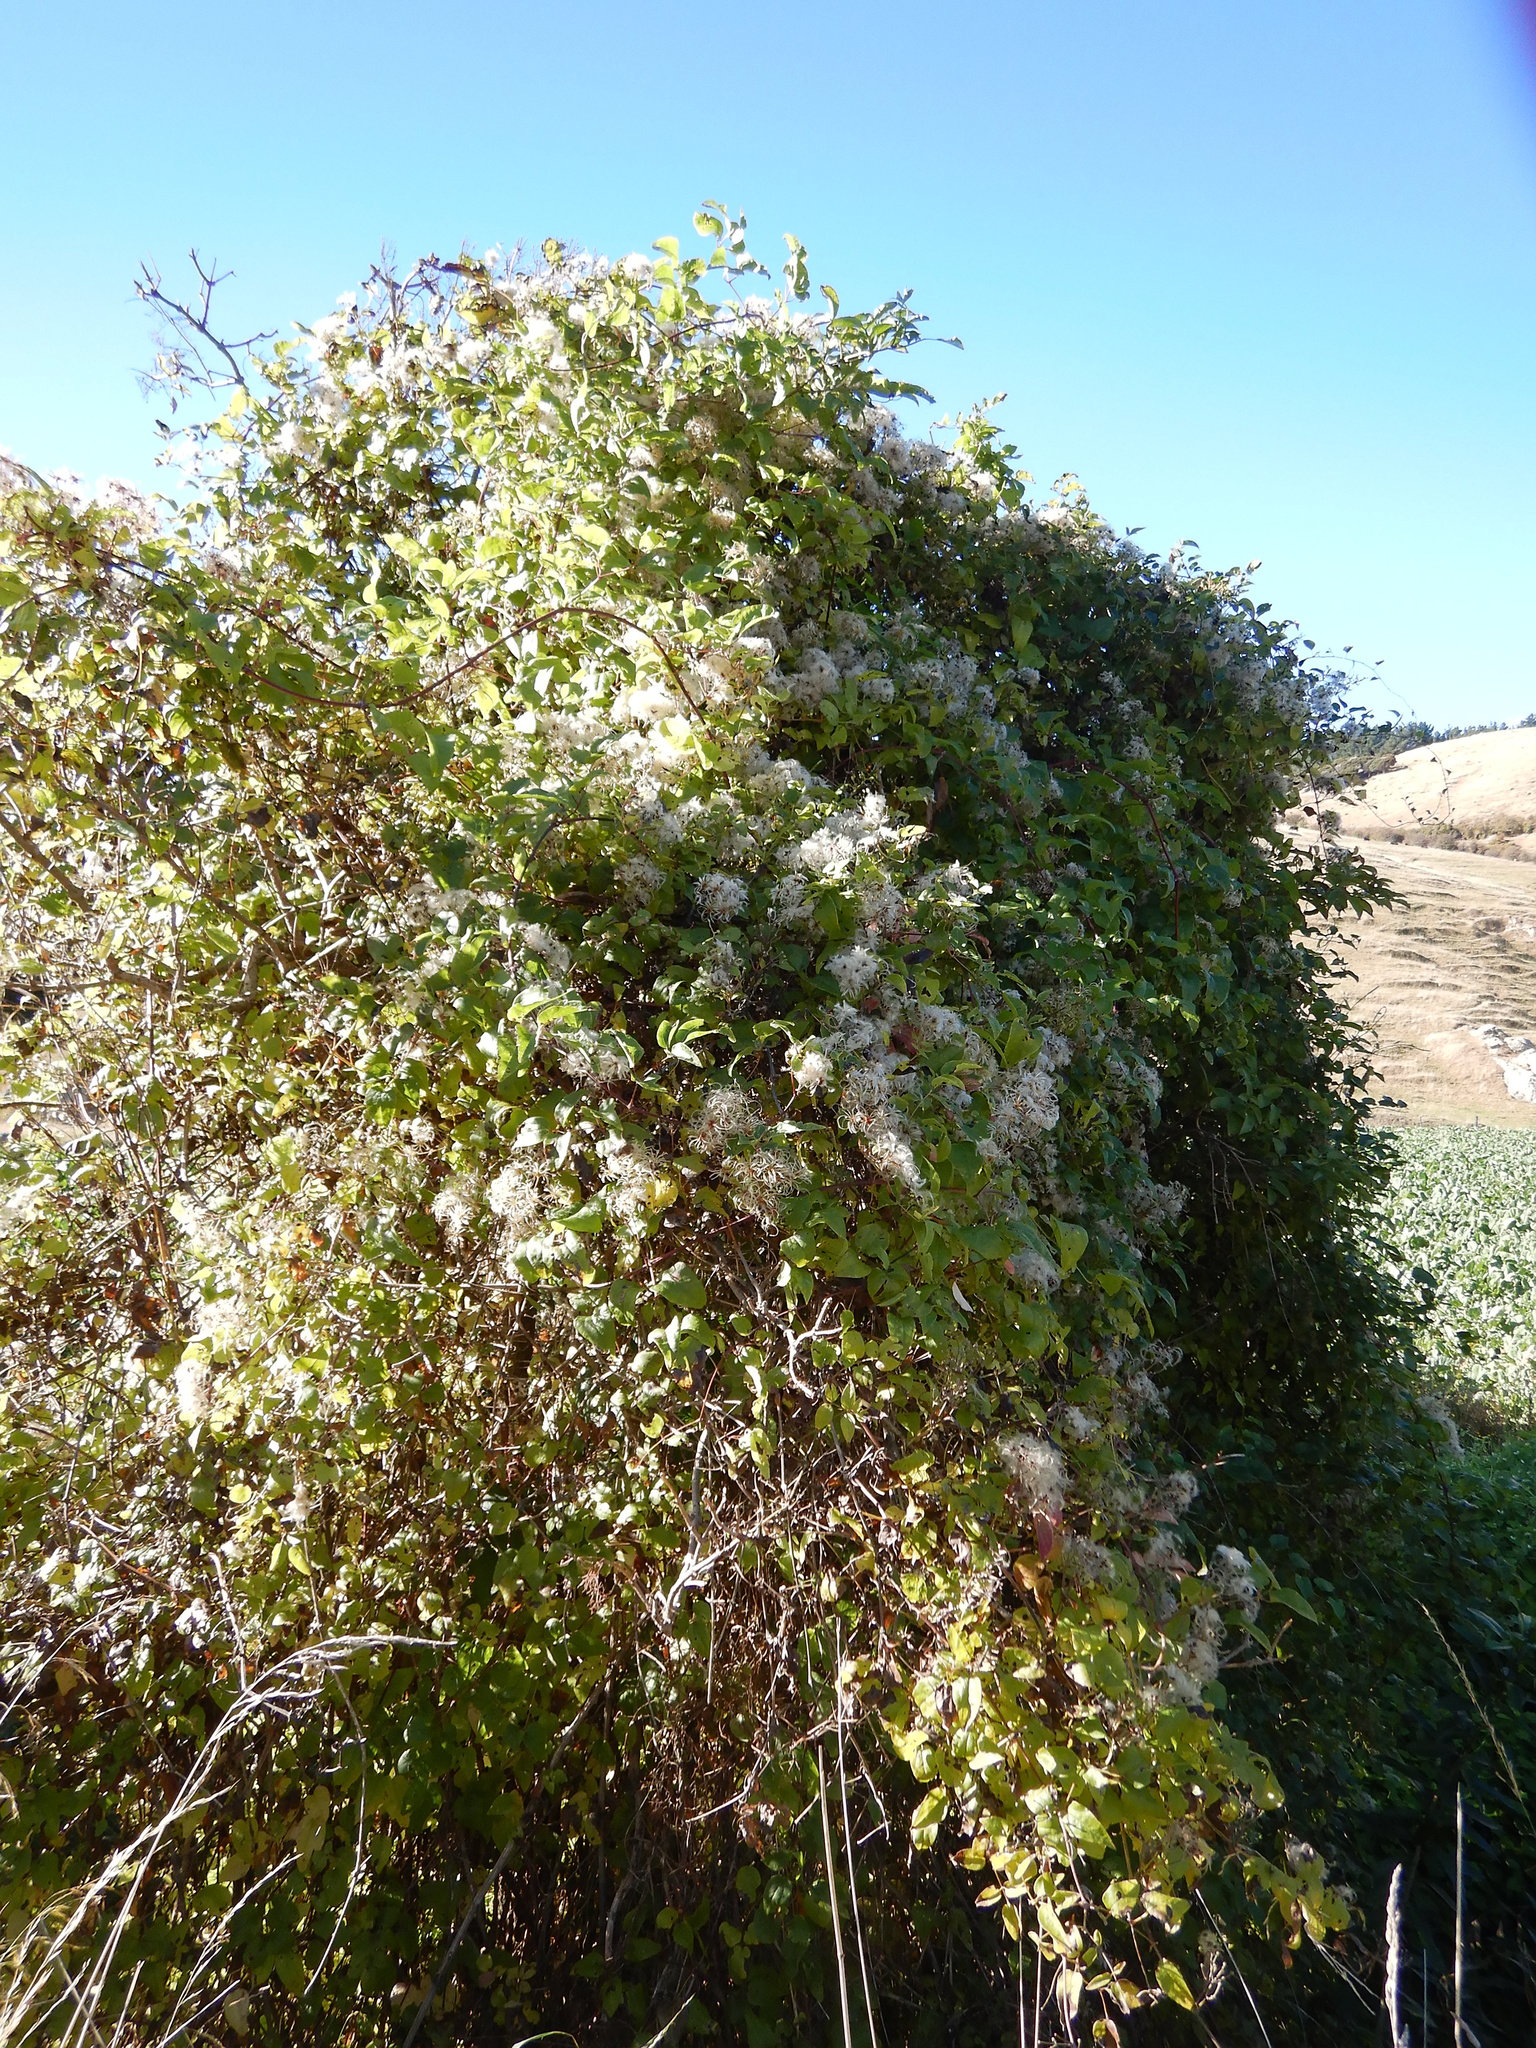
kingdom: Plantae
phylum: Tracheophyta
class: Magnoliopsida
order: Ranunculales
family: Ranunculaceae
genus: Clematis
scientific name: Clematis vitalba
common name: Evergreen clematis
